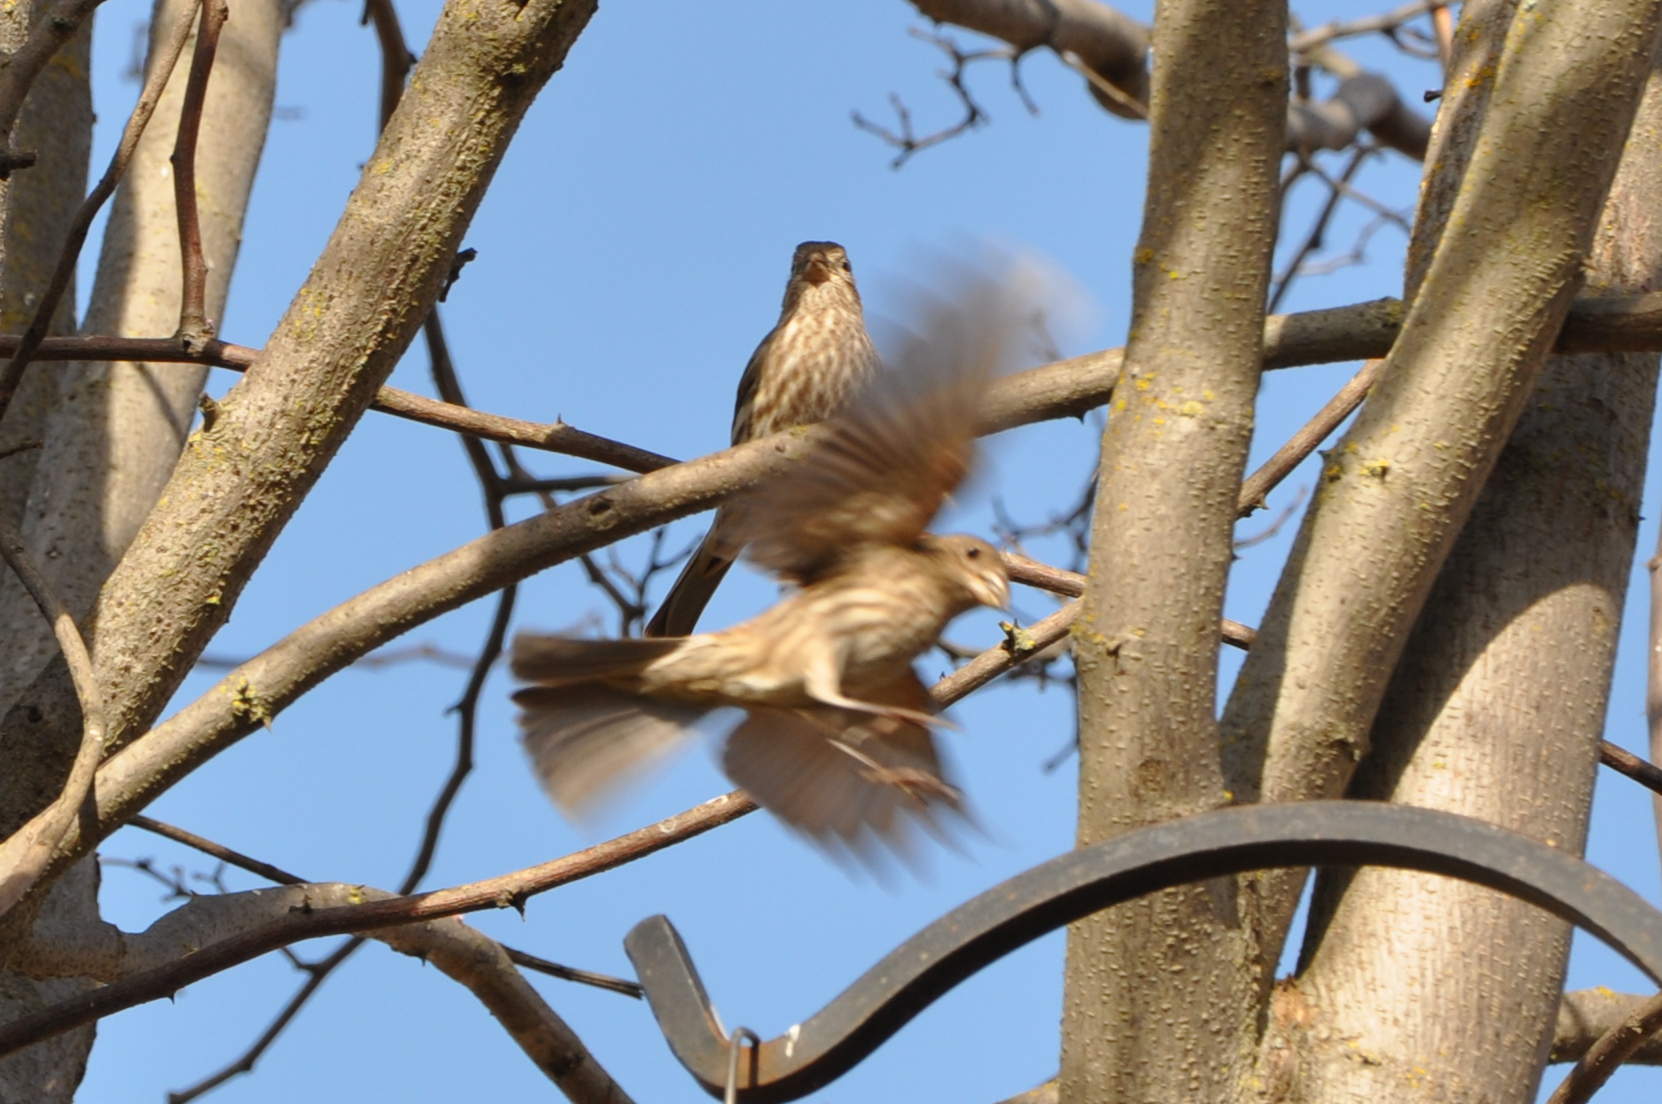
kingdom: Animalia
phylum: Chordata
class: Aves
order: Passeriformes
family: Fringillidae
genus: Haemorhous
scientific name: Haemorhous mexicanus
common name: House finch
